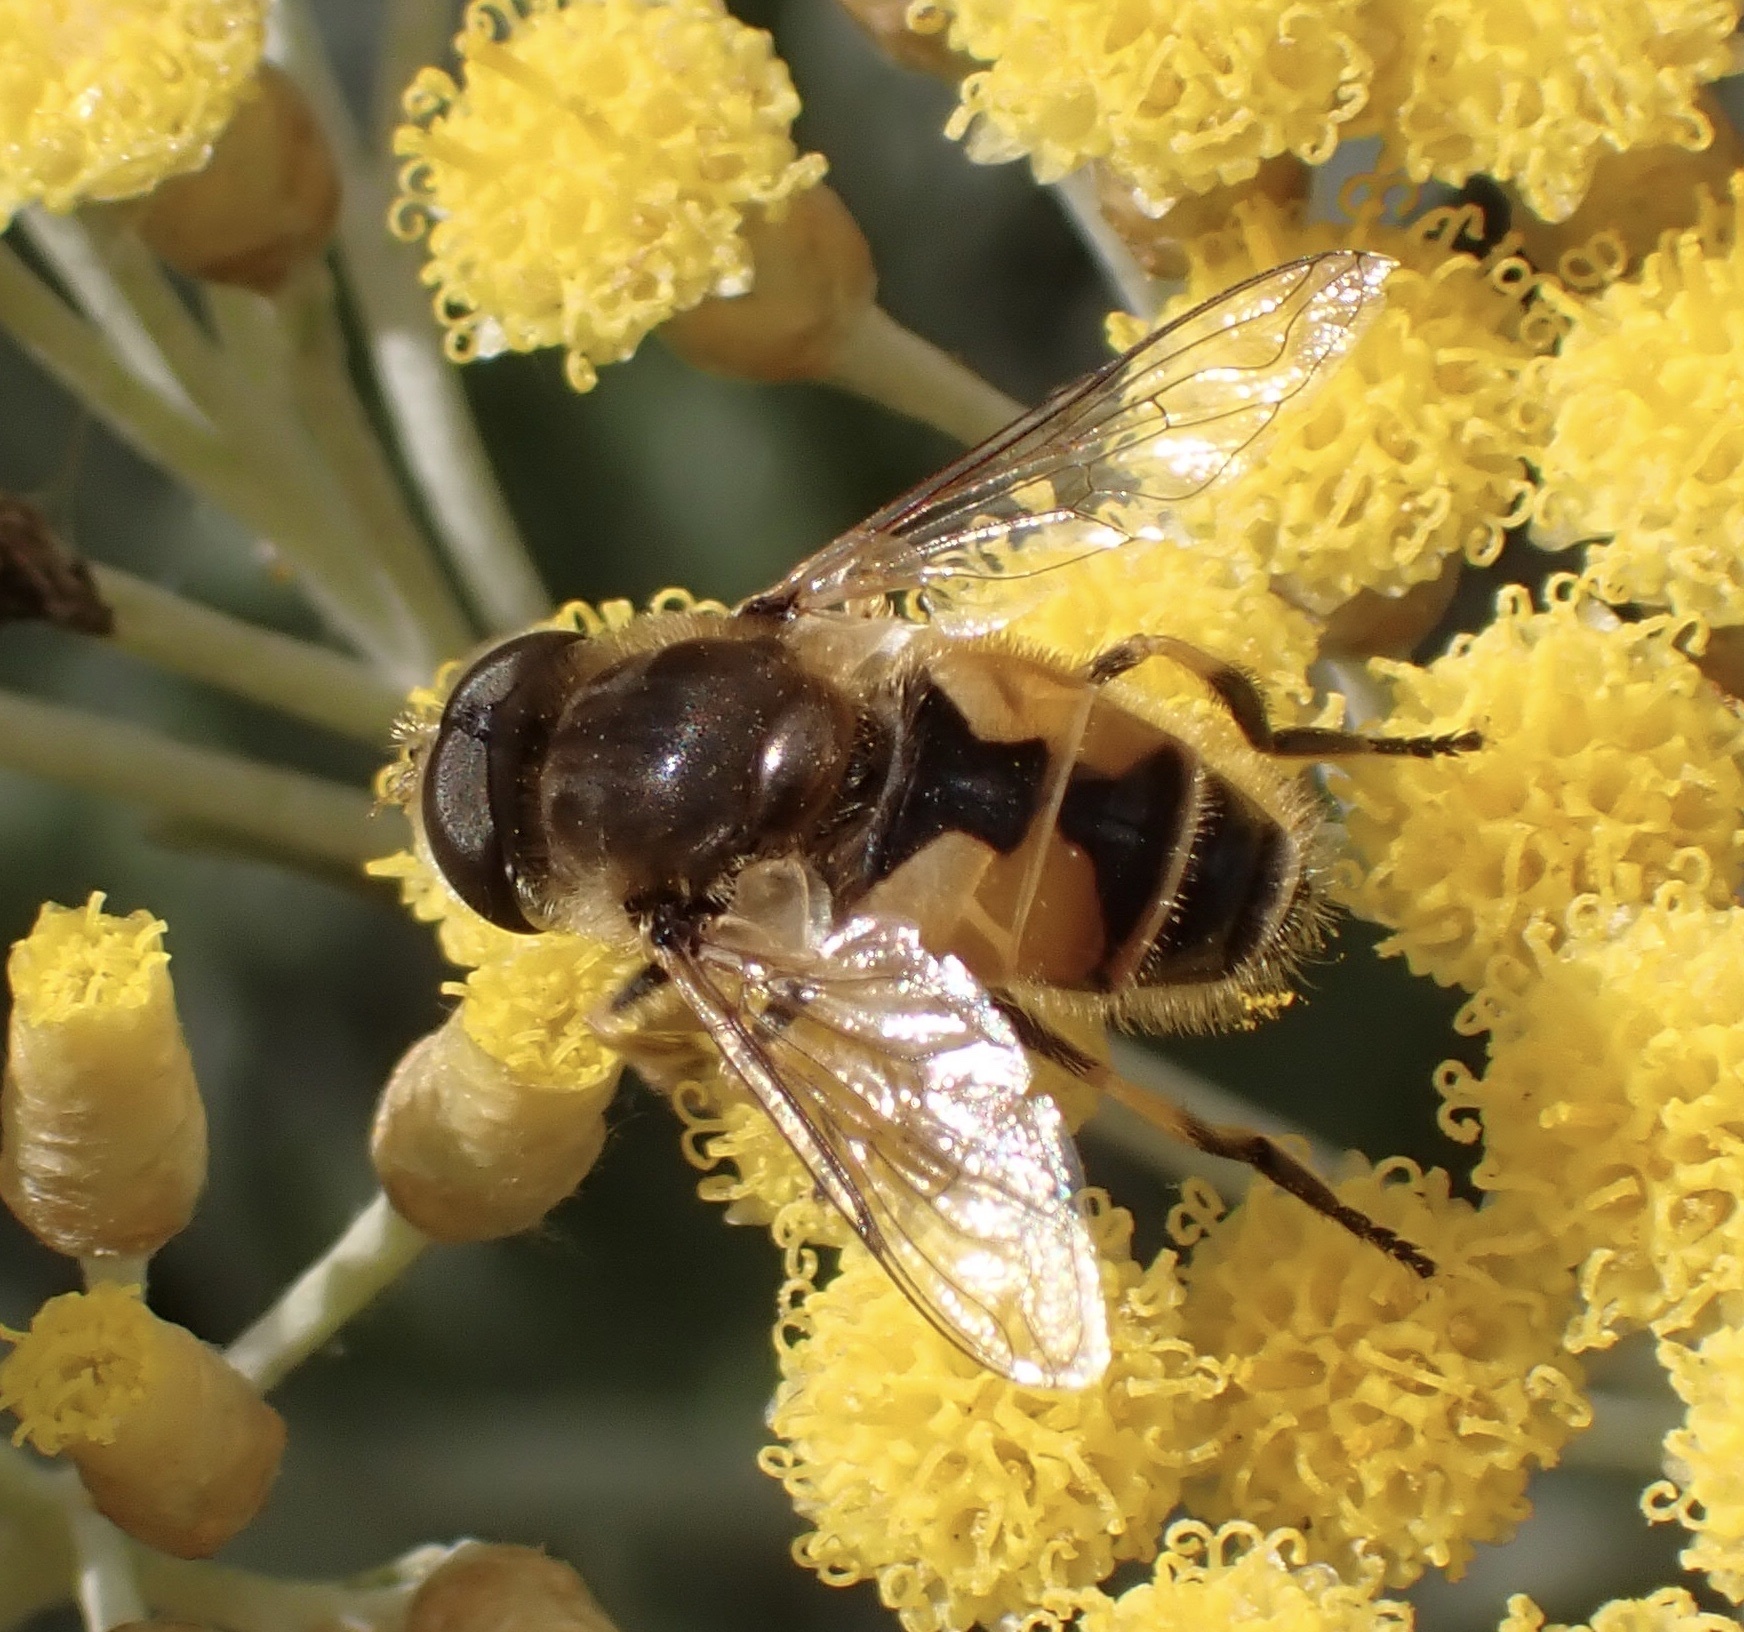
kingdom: Animalia
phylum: Arthropoda
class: Insecta
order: Diptera
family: Syrphidae
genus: Eristalis
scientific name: Eristalis arbustorum
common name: Hover fly
